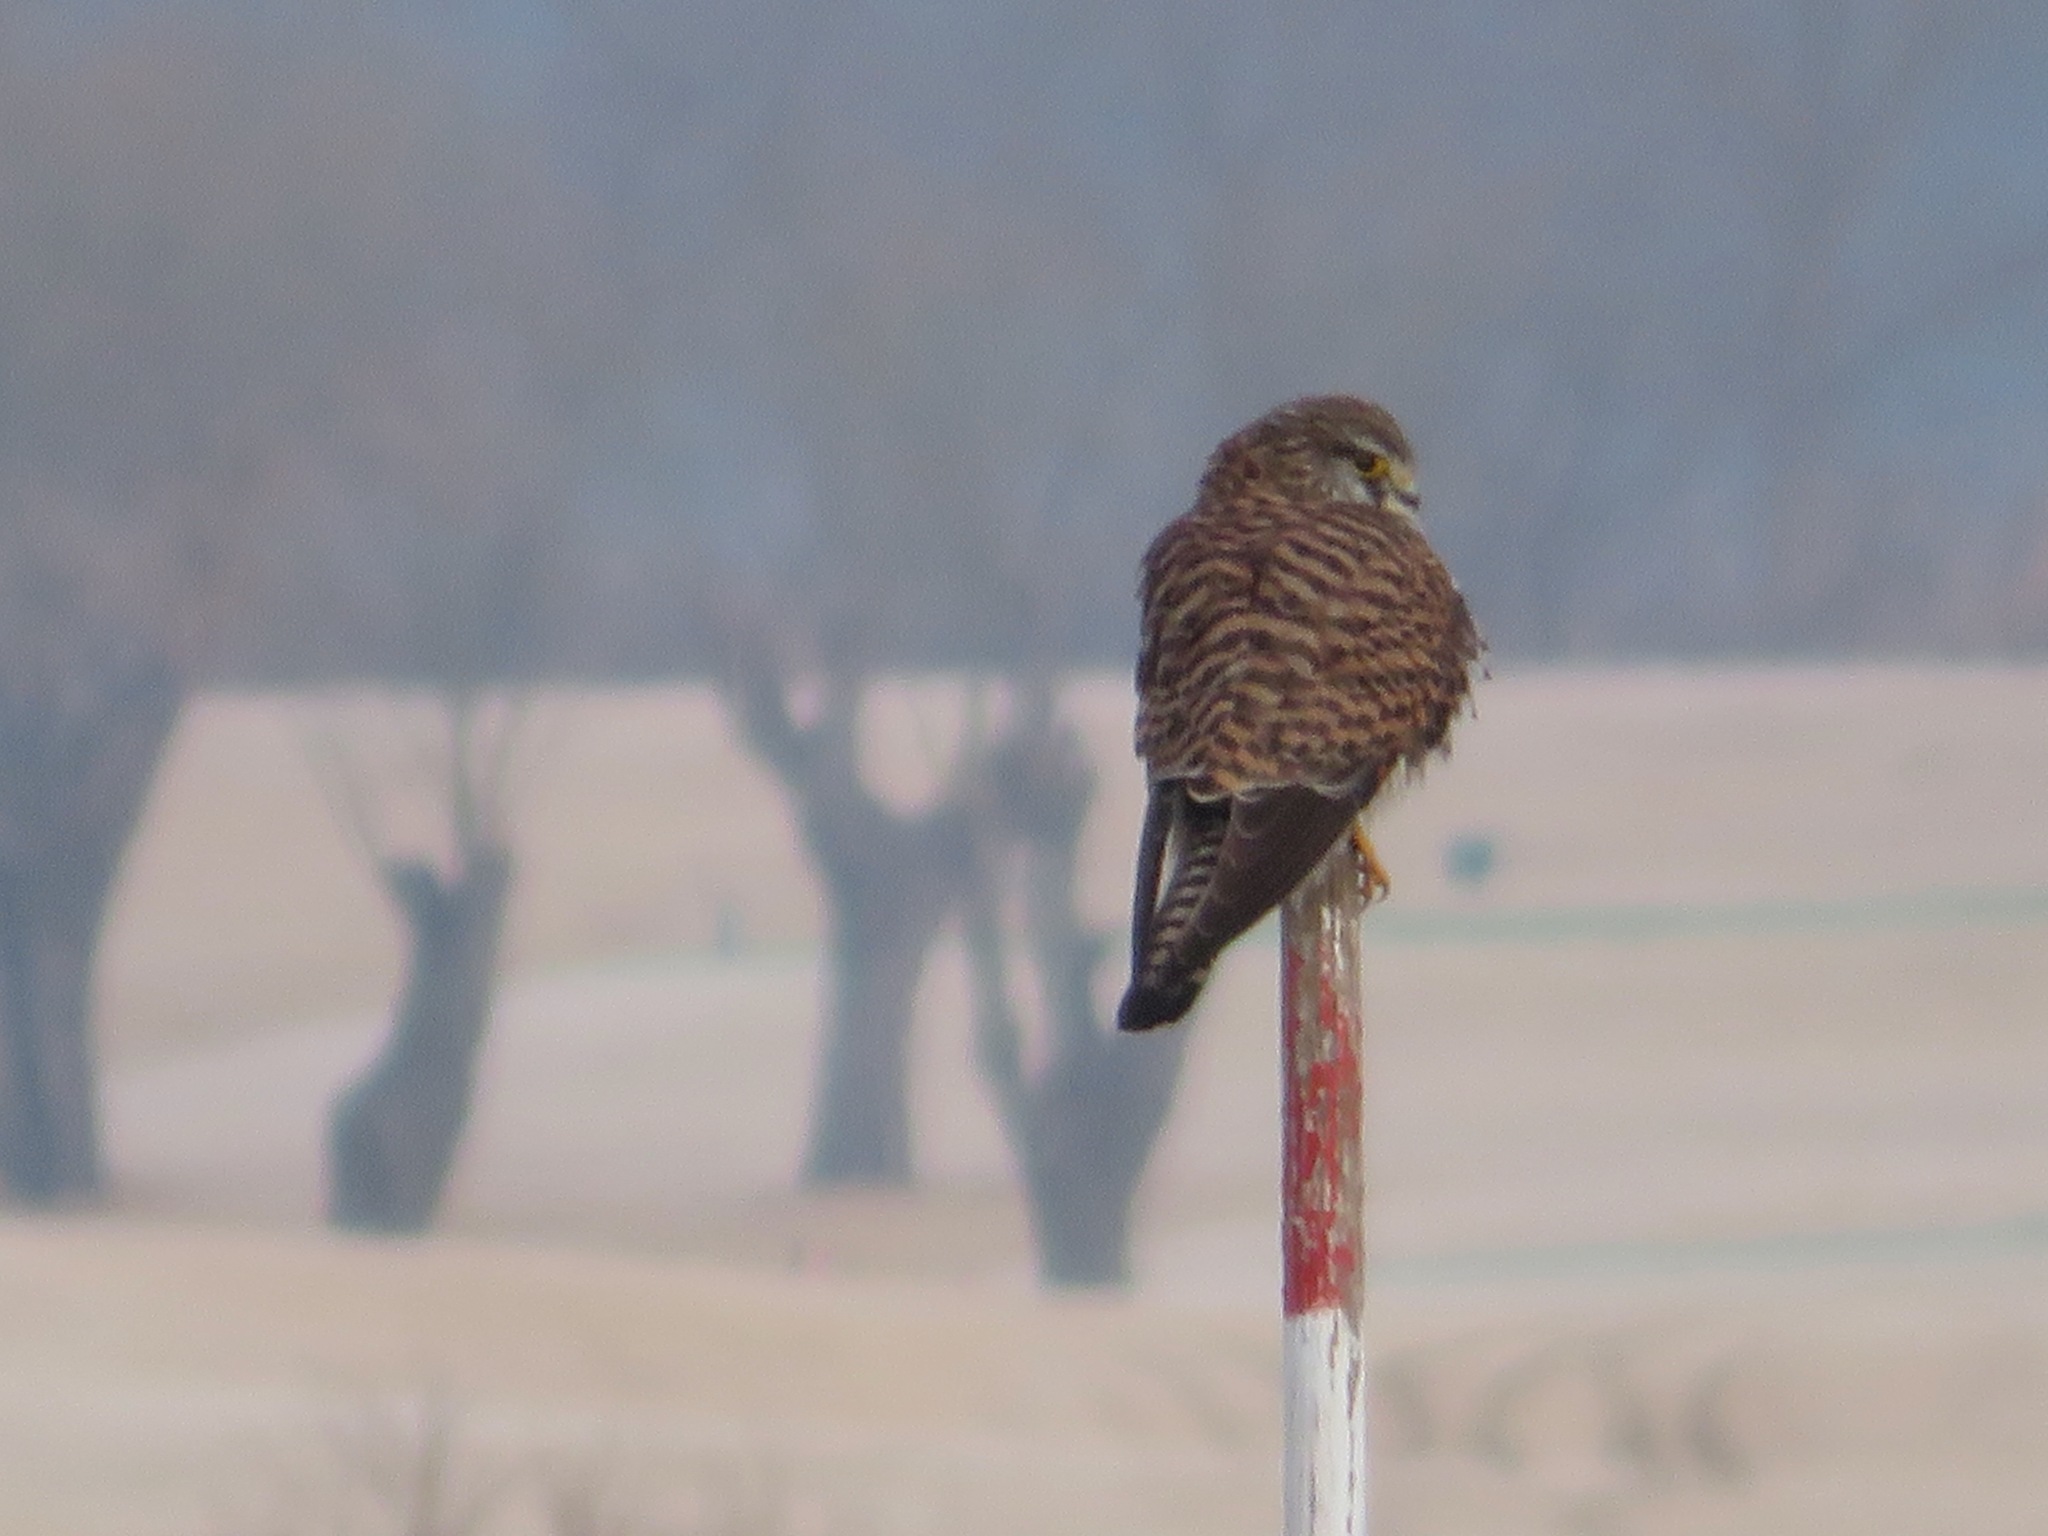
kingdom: Animalia
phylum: Chordata
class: Aves
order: Falconiformes
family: Falconidae
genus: Falco
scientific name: Falco tinnunculus
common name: Common kestrel
